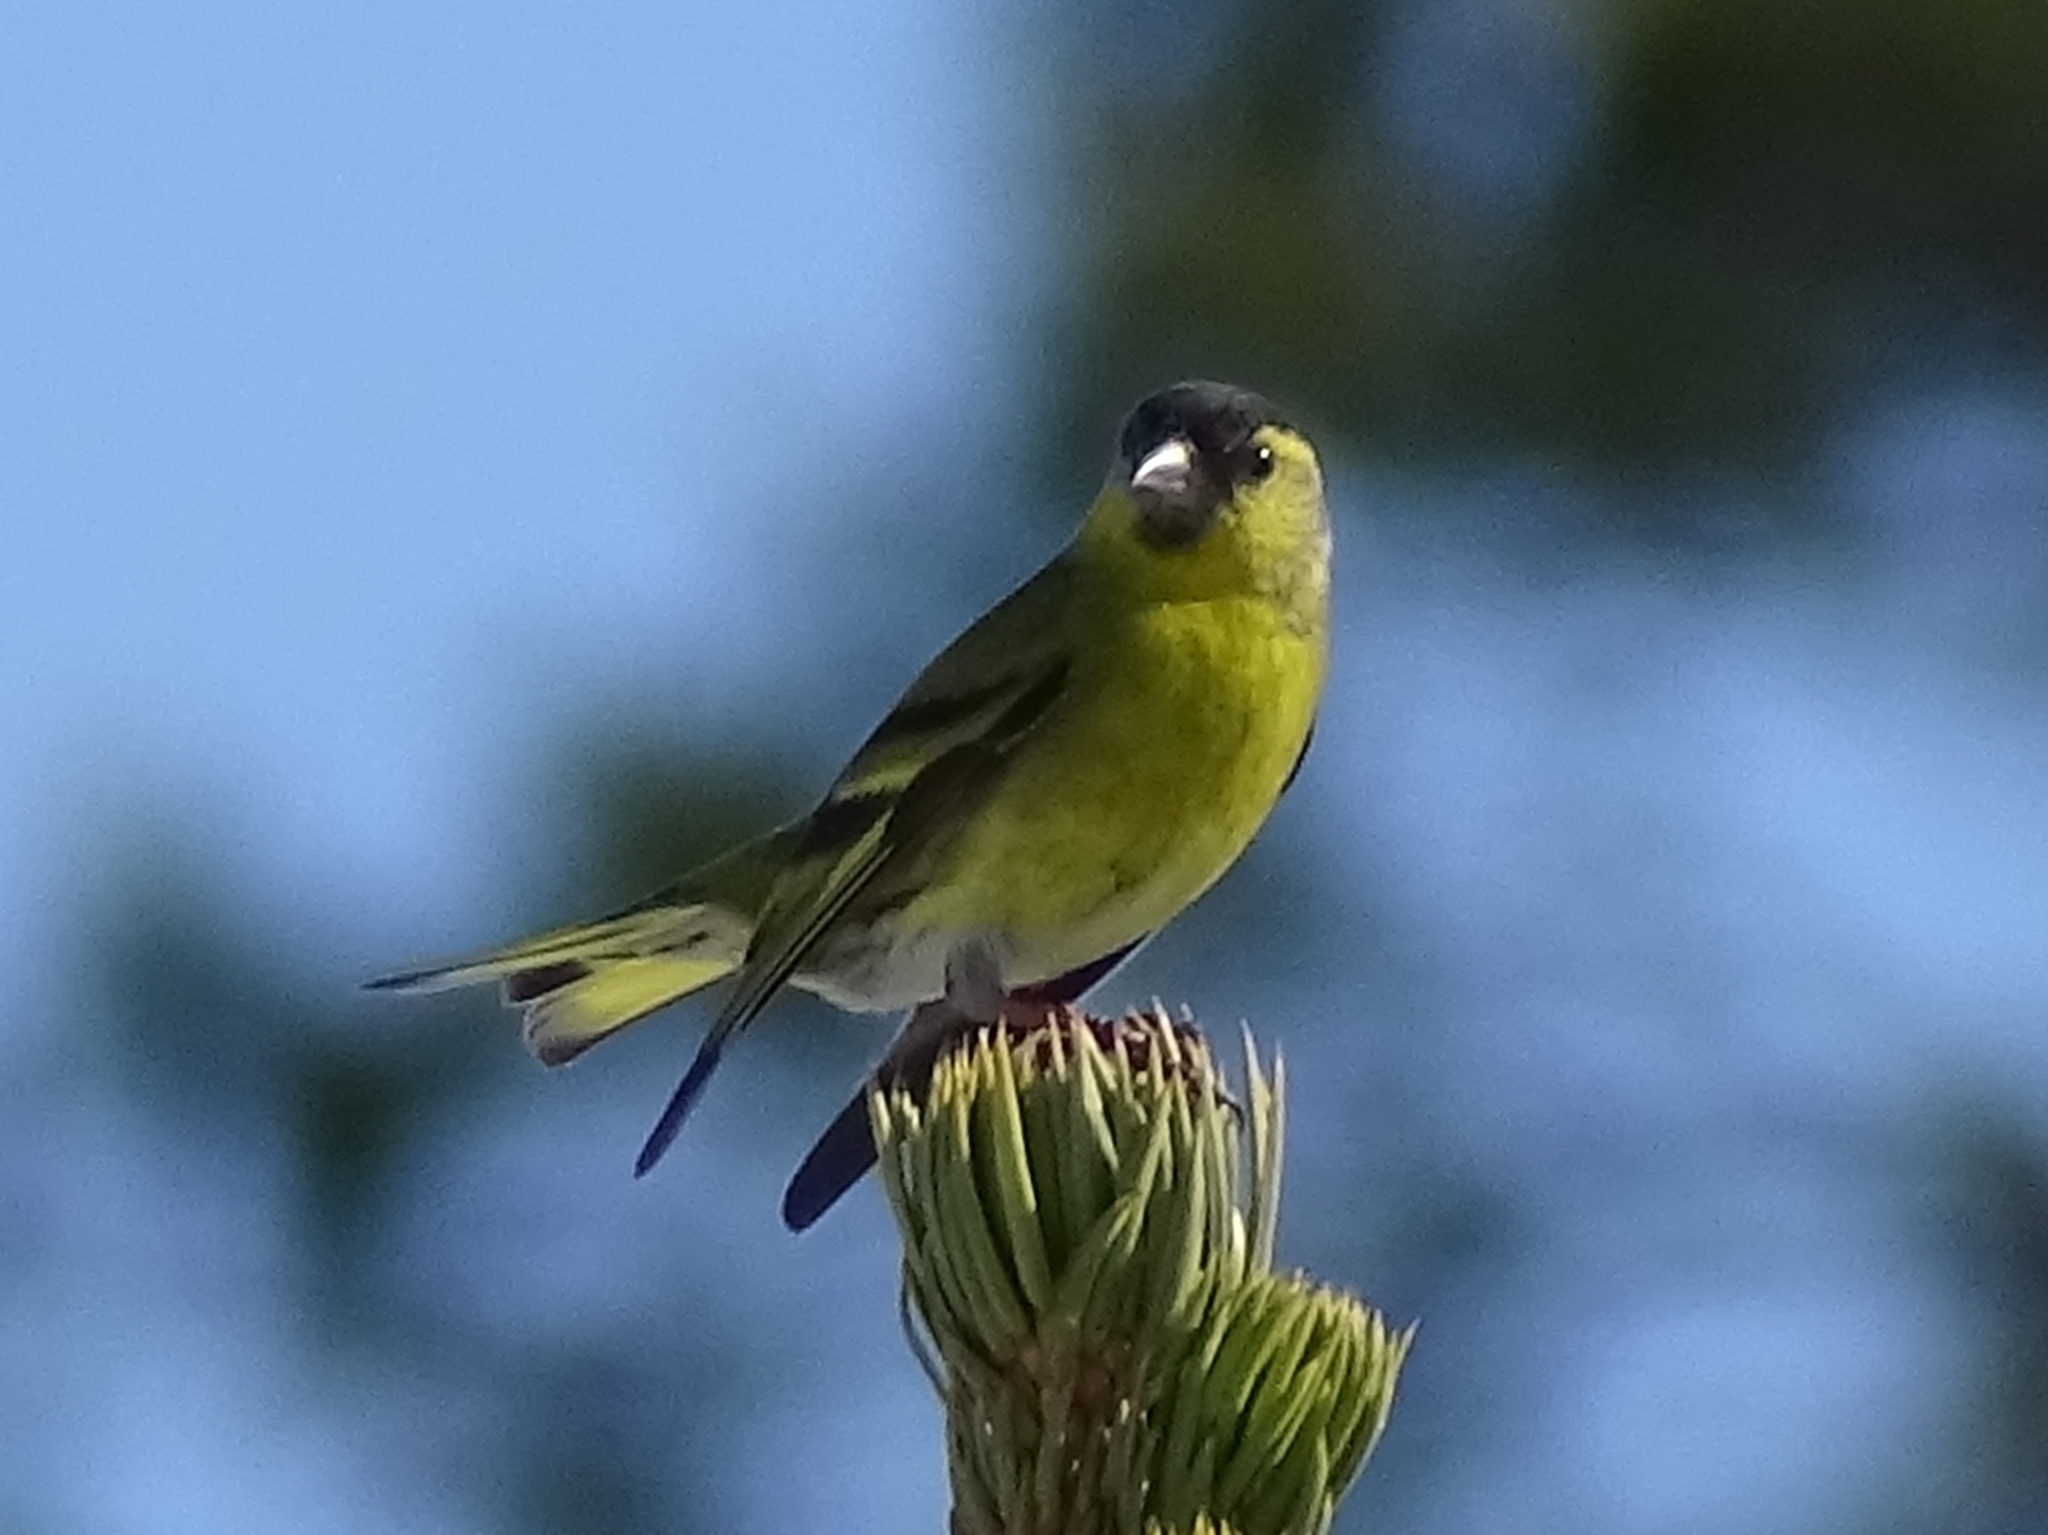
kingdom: Animalia
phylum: Chordata
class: Aves
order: Passeriformes
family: Fringillidae
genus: Spinus
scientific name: Spinus spinus
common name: Eurasian siskin
